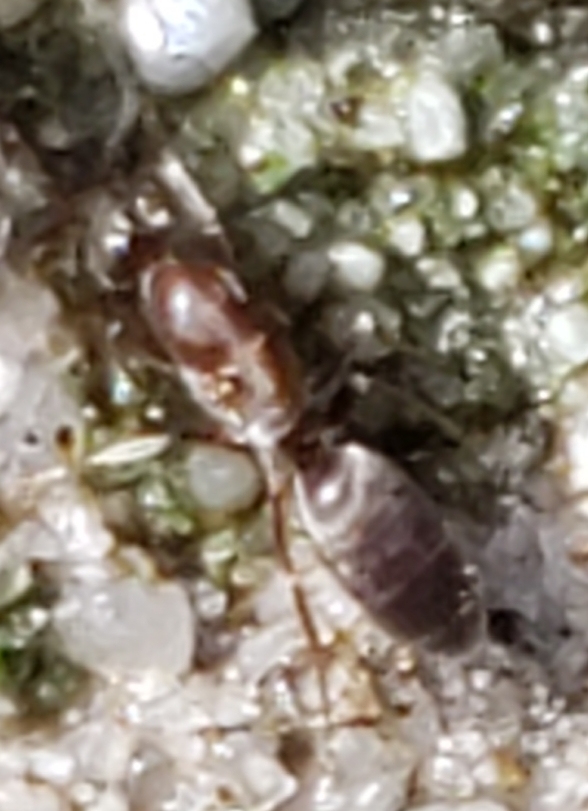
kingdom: Animalia
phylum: Arthropoda
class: Insecta
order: Hymenoptera
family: Formicidae
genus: Linepithema
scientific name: Linepithema humile
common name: Argentine ant
